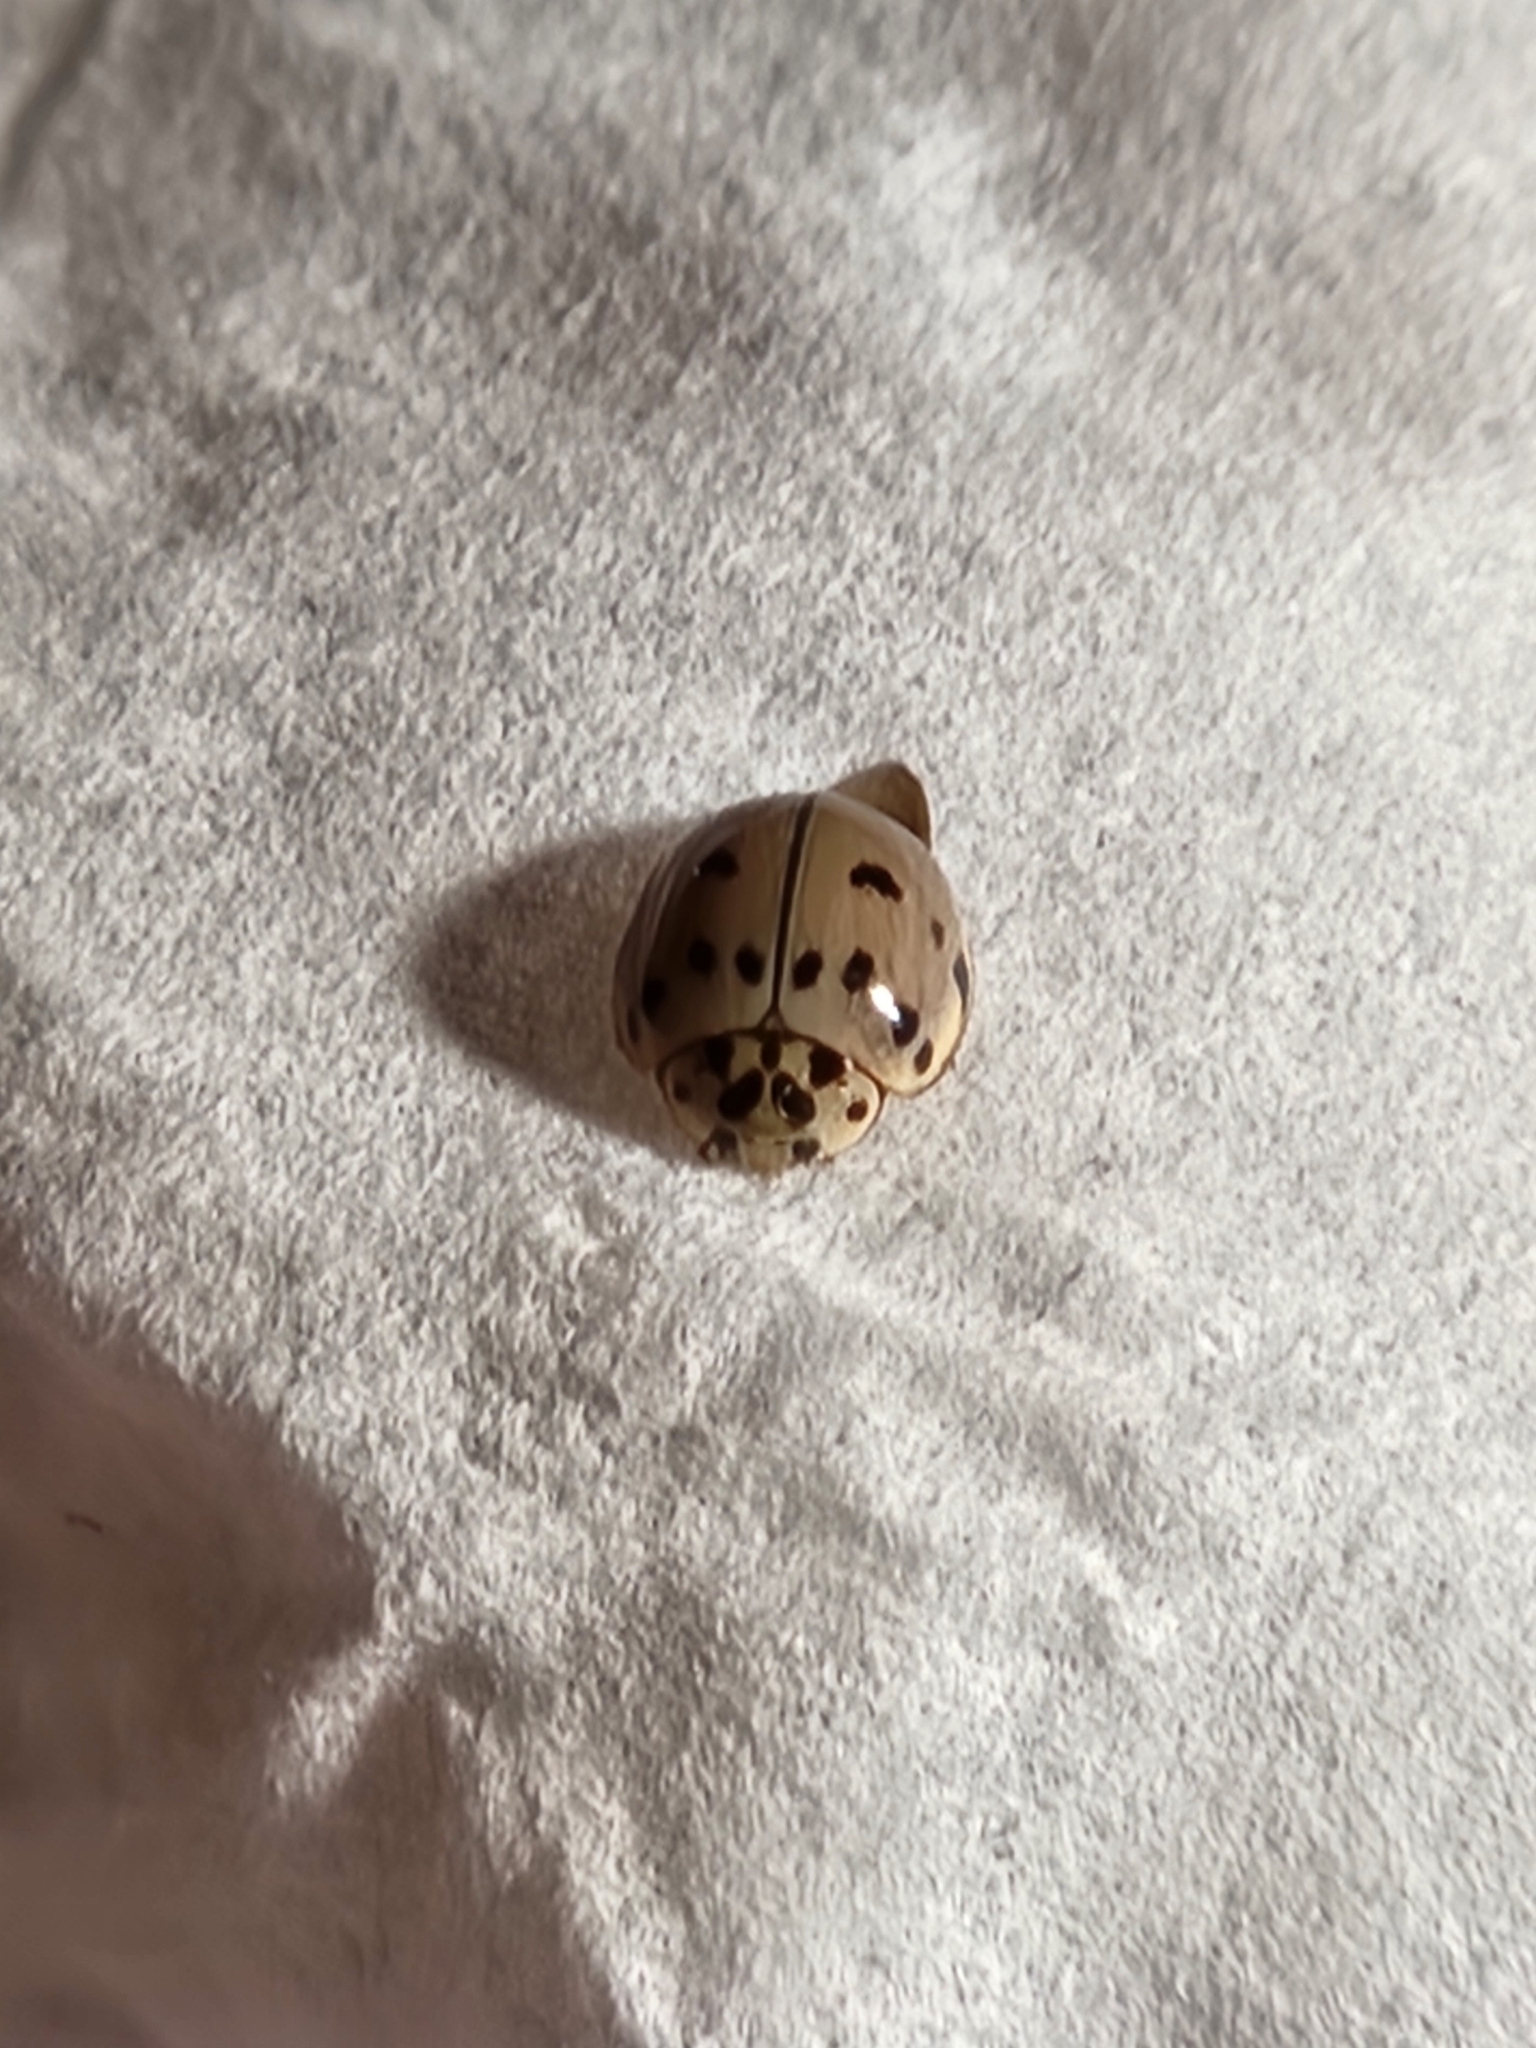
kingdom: Animalia
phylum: Arthropoda
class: Insecta
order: Coleoptera
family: Coccinellidae
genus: Olla
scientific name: Olla v-nigrum
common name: Ashy gray lady beetle
